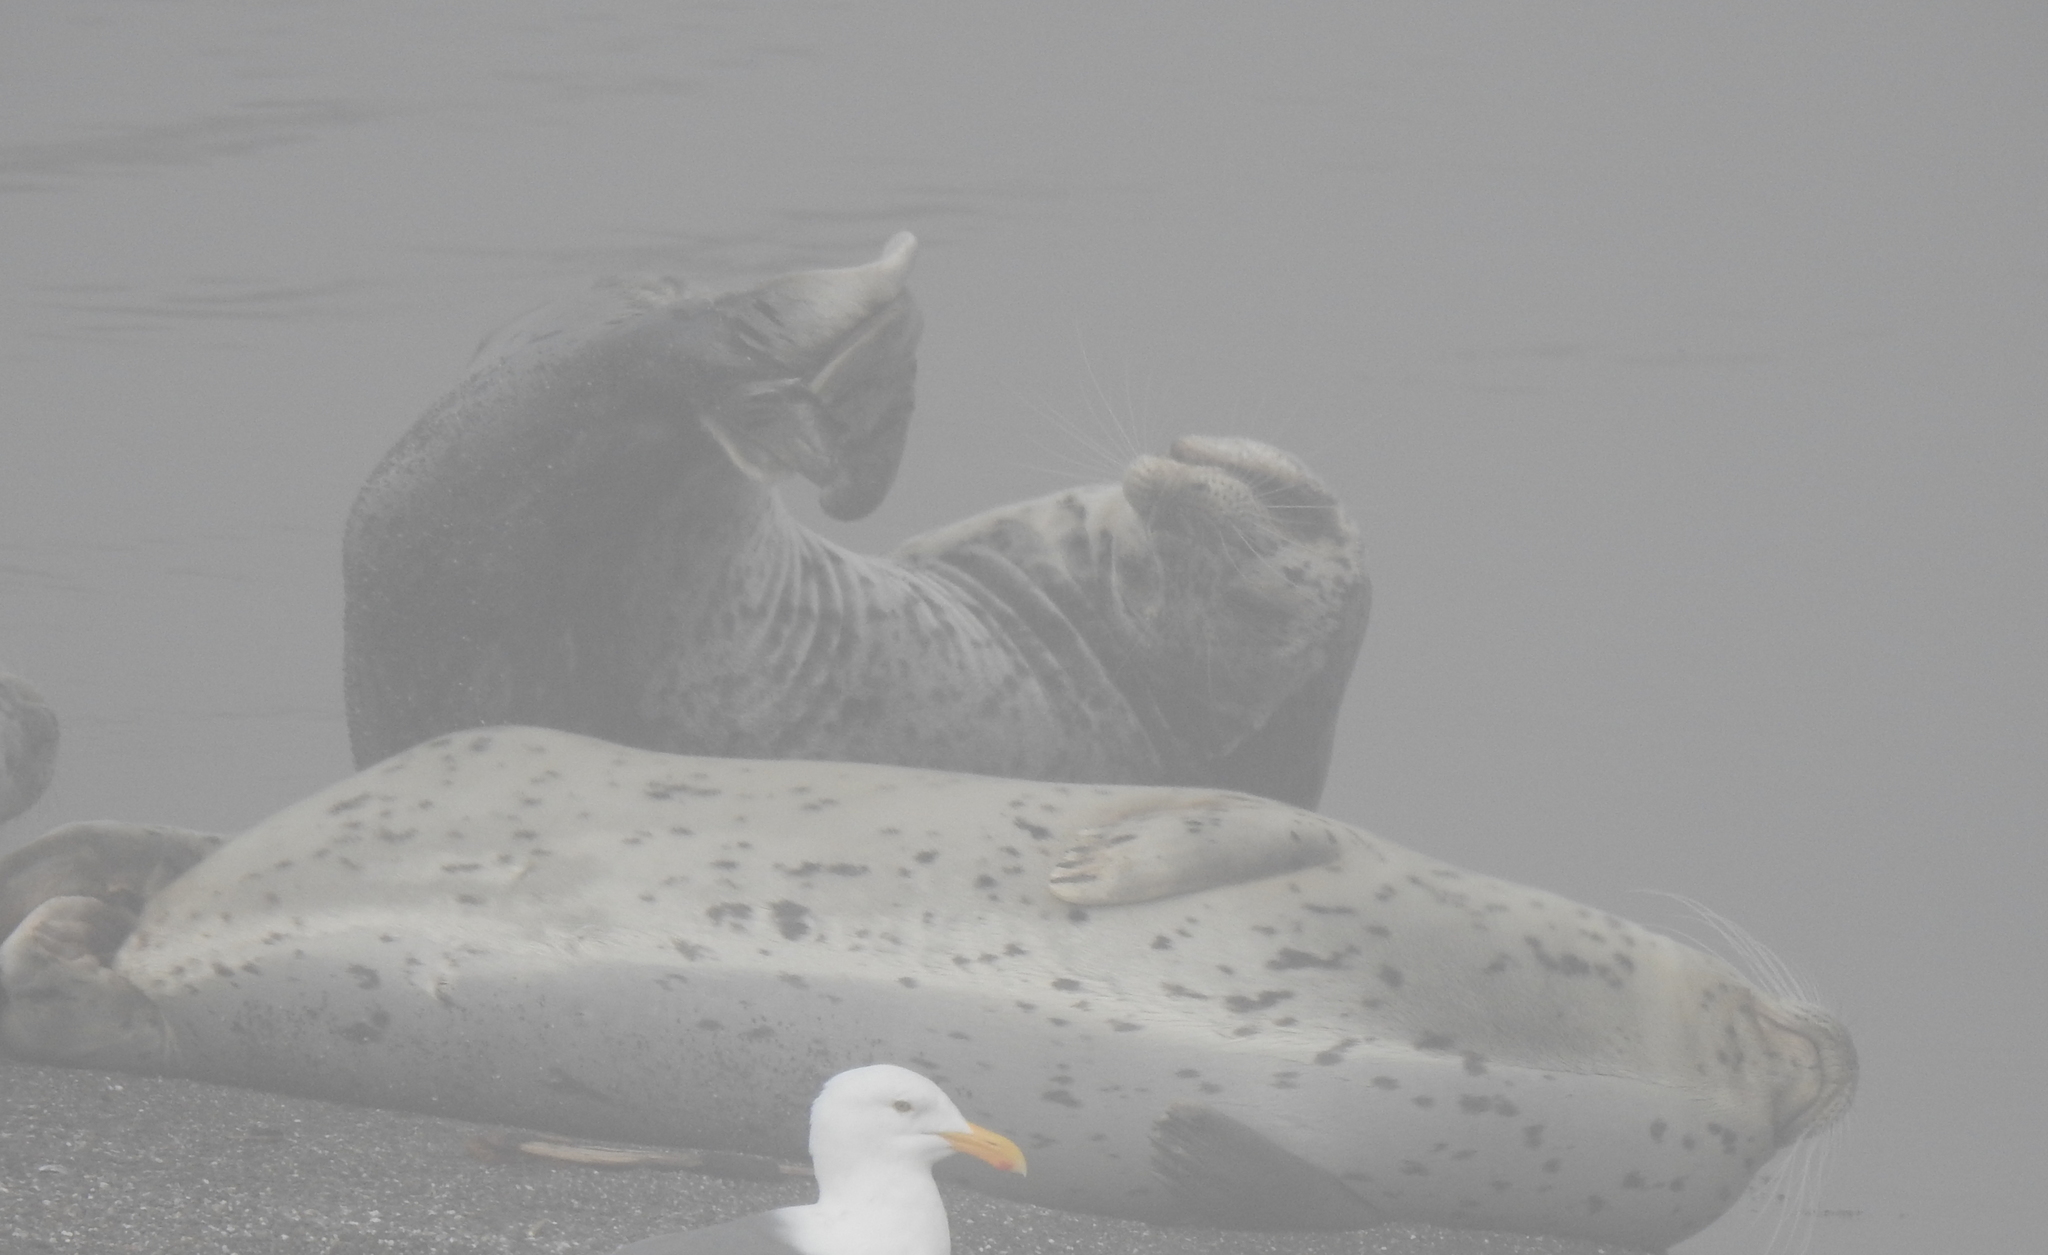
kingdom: Animalia
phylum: Chordata
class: Mammalia
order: Carnivora
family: Phocidae
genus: Phoca
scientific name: Phoca vitulina
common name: Harbor seal
